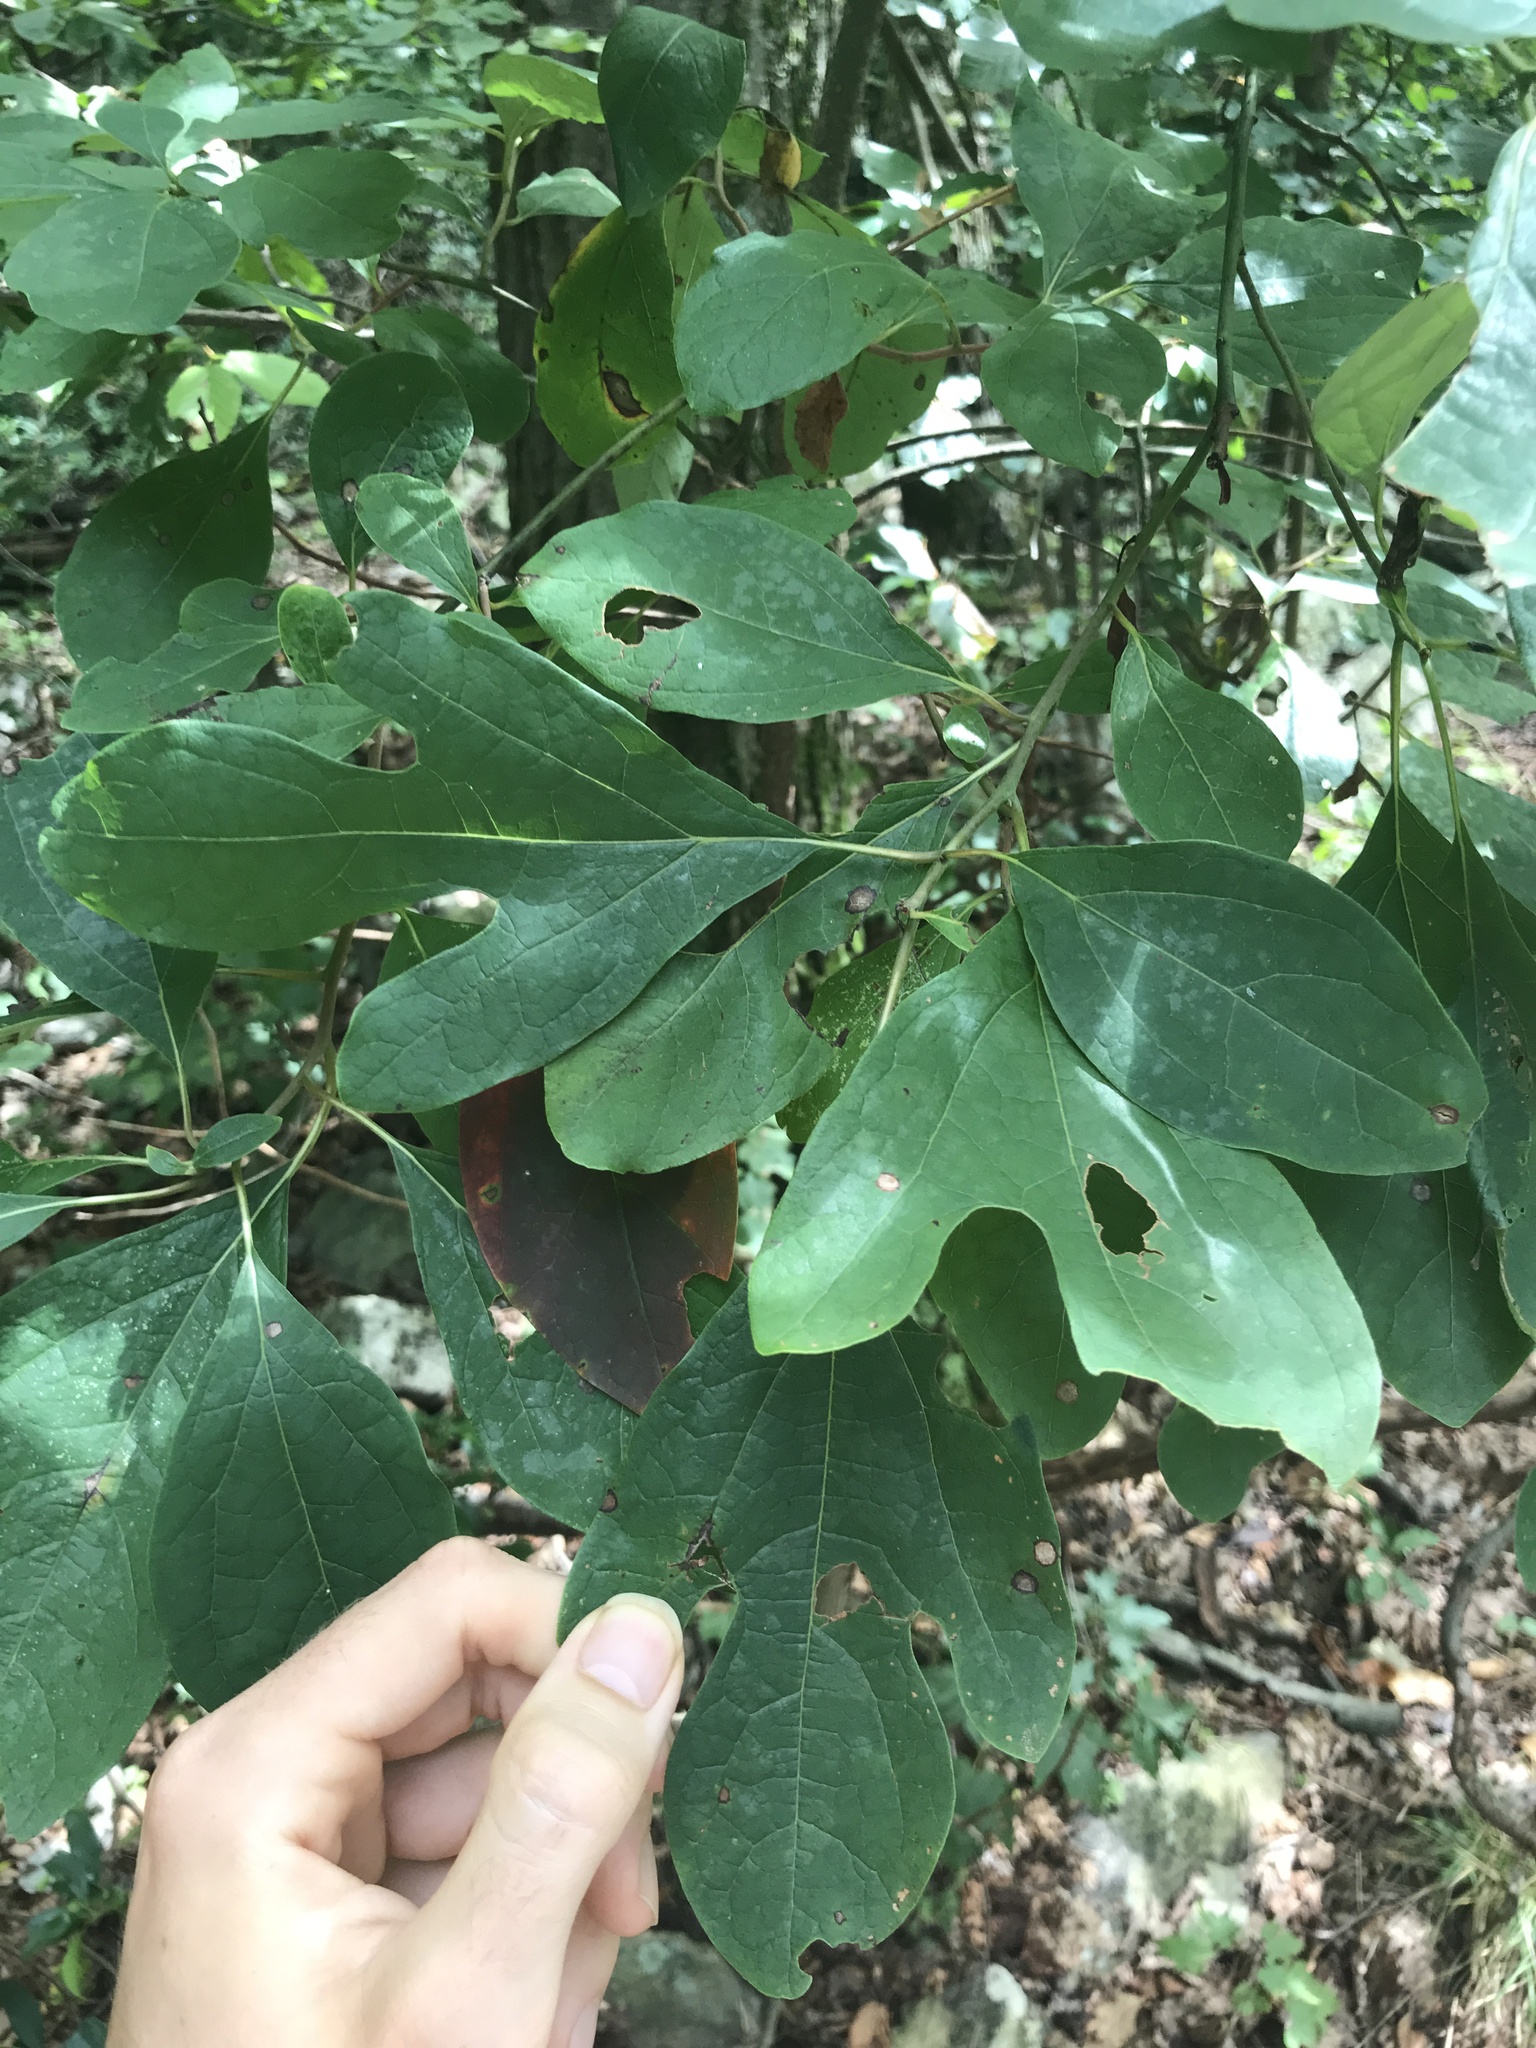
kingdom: Plantae
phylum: Tracheophyta
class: Magnoliopsida
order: Laurales
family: Lauraceae
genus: Sassafras
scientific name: Sassafras albidum
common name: Sassafras
